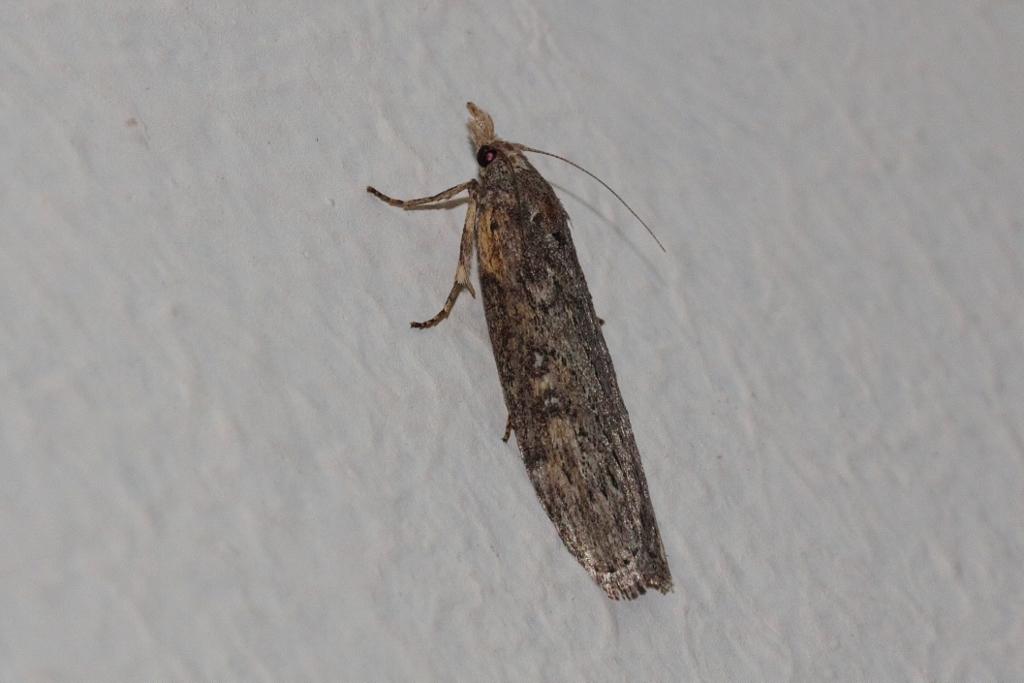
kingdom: Animalia
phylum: Arthropoda
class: Insecta
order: Lepidoptera
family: Pyralidae
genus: Lamoria
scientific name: Lamoria imbella
